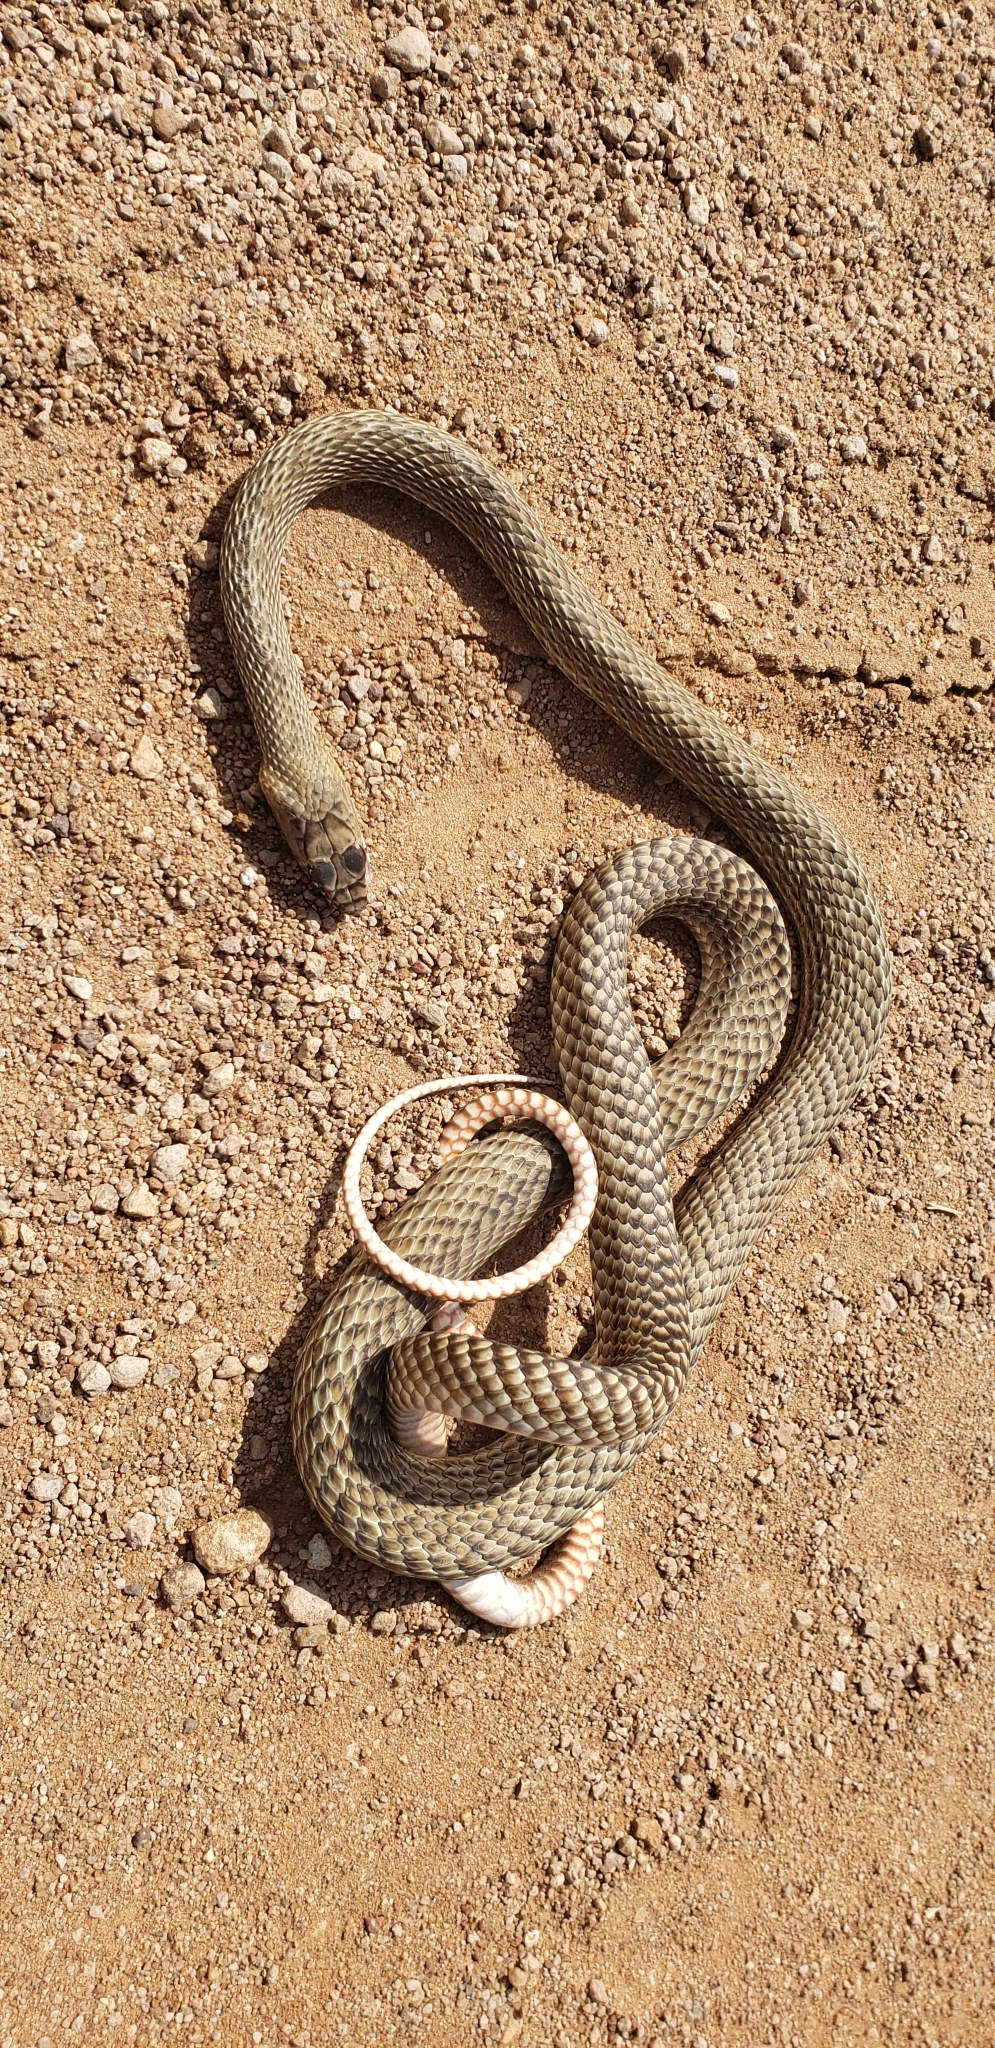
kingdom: Animalia
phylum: Chordata
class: Squamata
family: Colubridae
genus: Masticophis
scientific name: Masticophis flagellum
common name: Coachwhip
